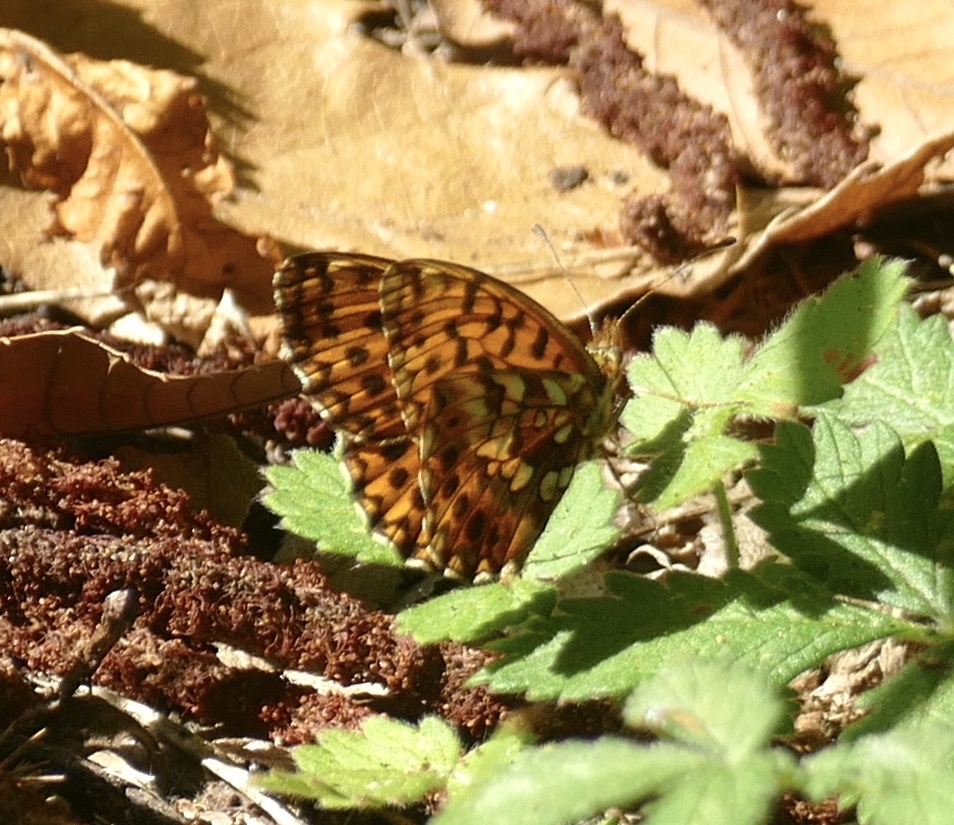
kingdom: Animalia
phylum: Arthropoda
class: Insecta
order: Lepidoptera
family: Nymphalidae
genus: Boloria
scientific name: Boloria dia
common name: Weaver's fritillary
